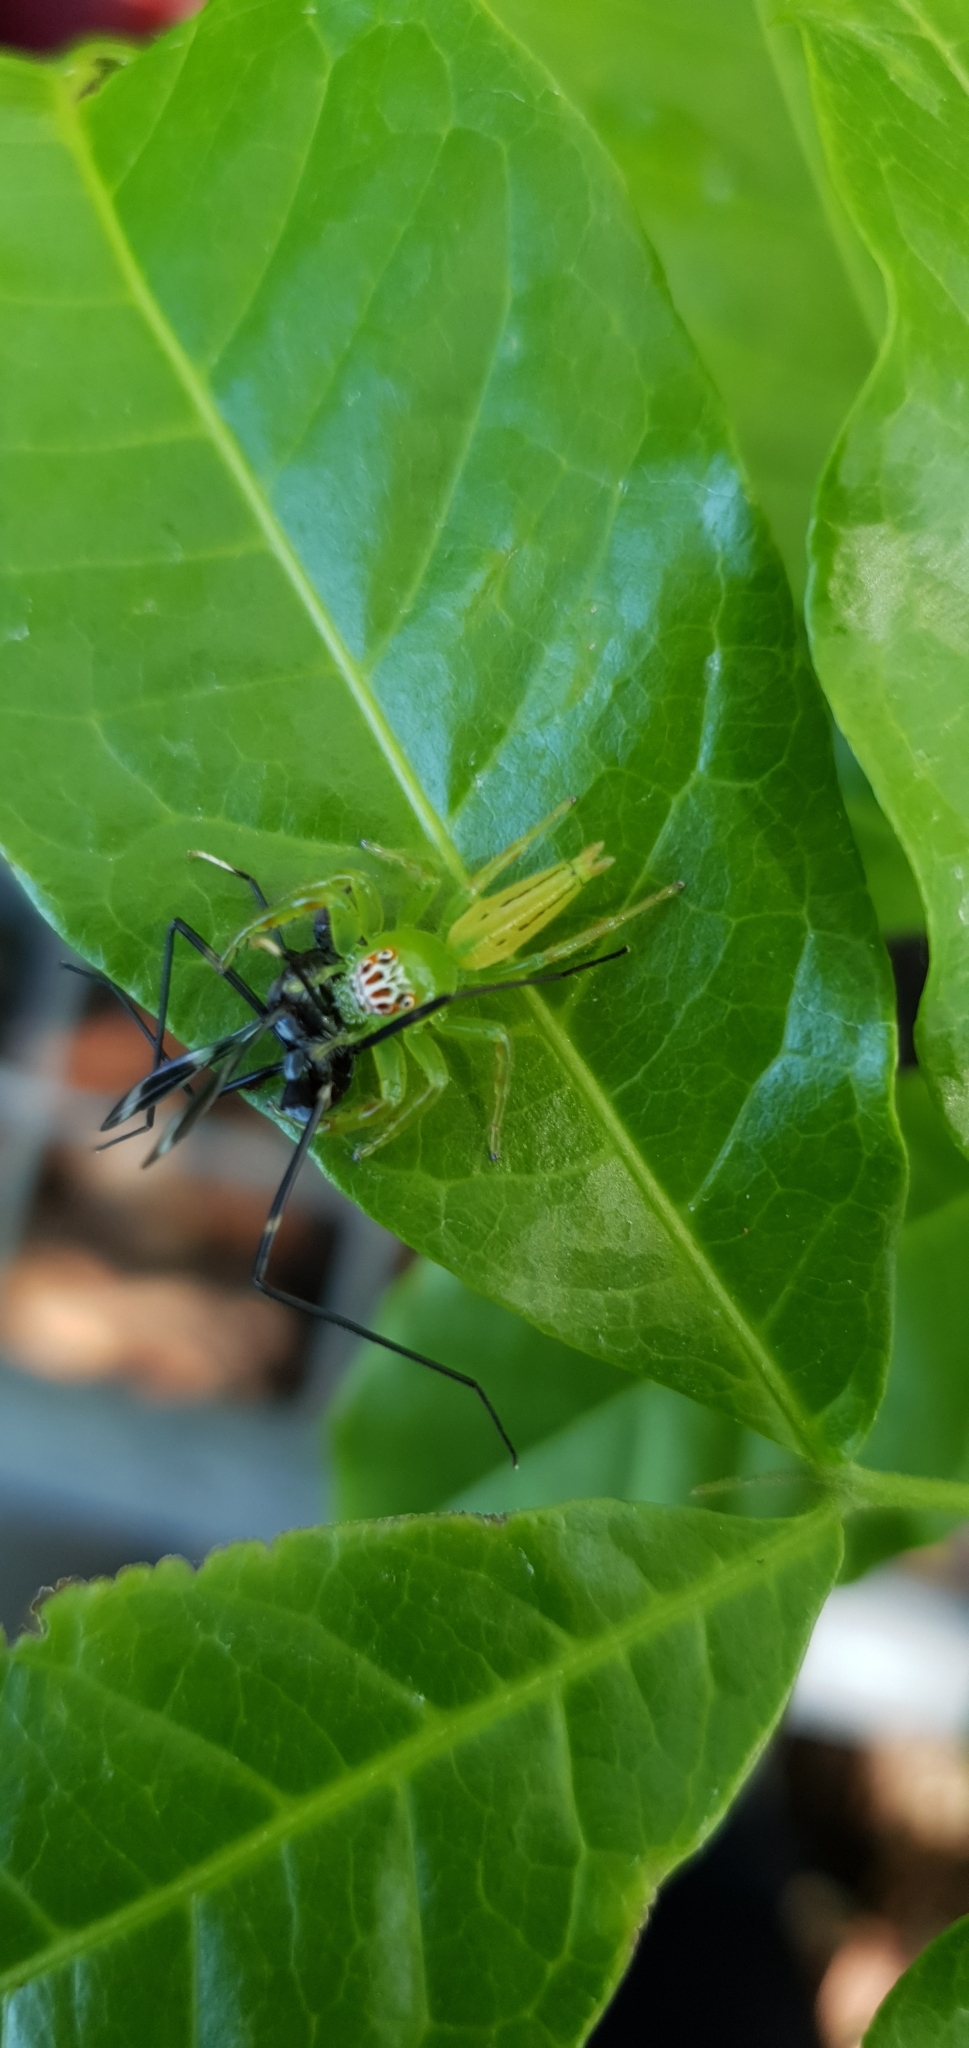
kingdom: Animalia
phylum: Arthropoda
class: Arachnida
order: Araneae
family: Salticidae
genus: Mopsus
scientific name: Mopsus mormon
